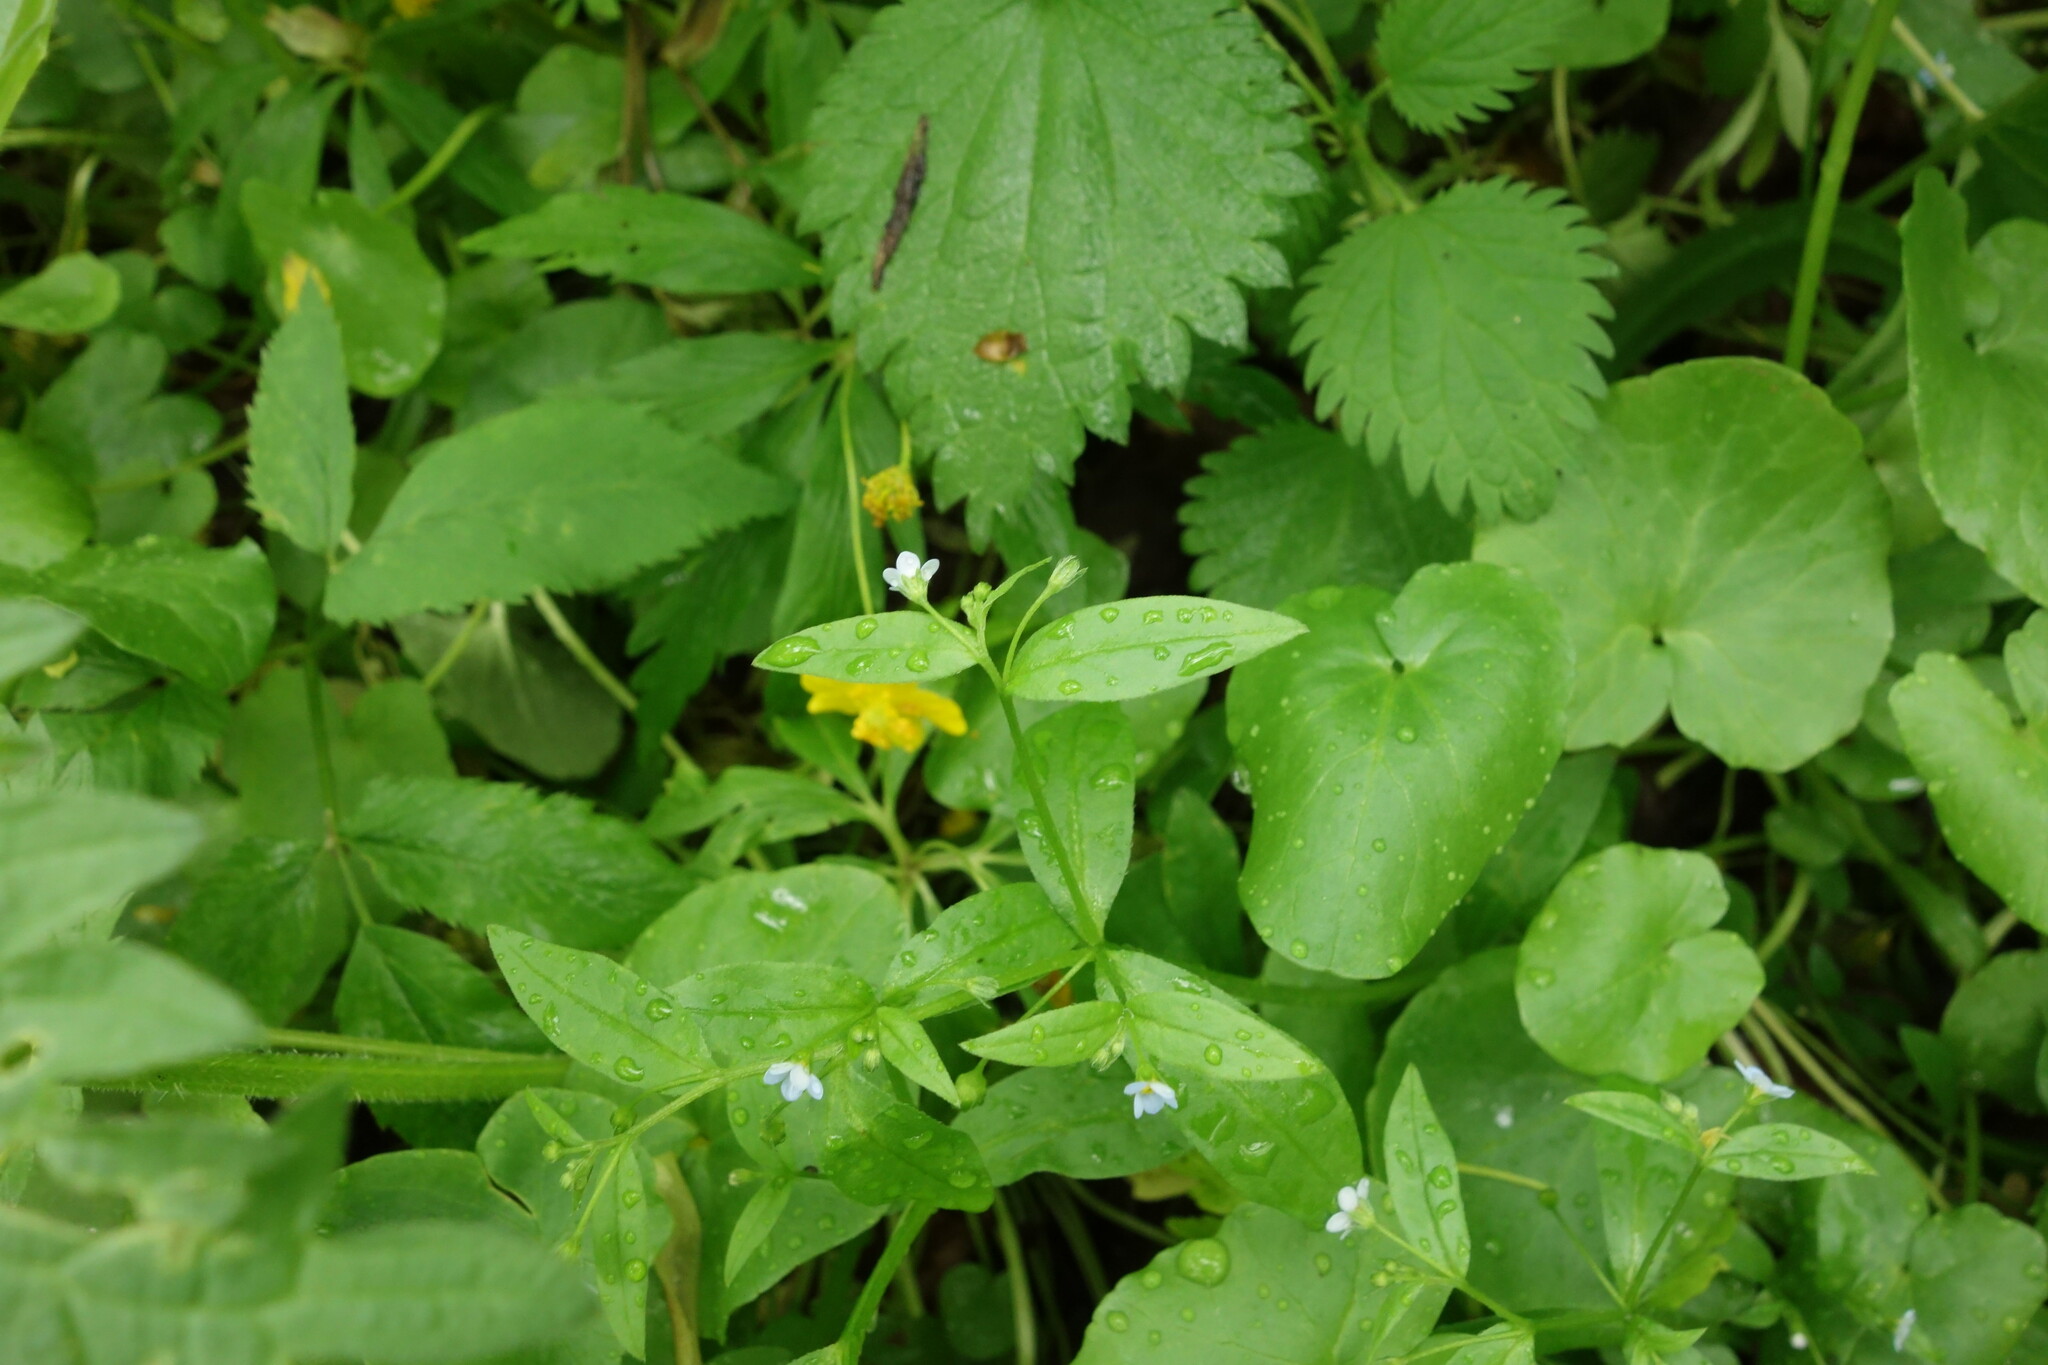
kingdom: Plantae
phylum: Tracheophyta
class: Magnoliopsida
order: Boraginales
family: Boraginaceae
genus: Memoremea
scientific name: Memoremea scorpioides
